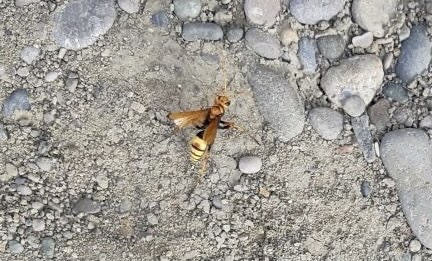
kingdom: Animalia
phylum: Arthropoda
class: Insecta
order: Hymenoptera
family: Pompilidae
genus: Cryptocheilus
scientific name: Cryptocheilus alternatus
